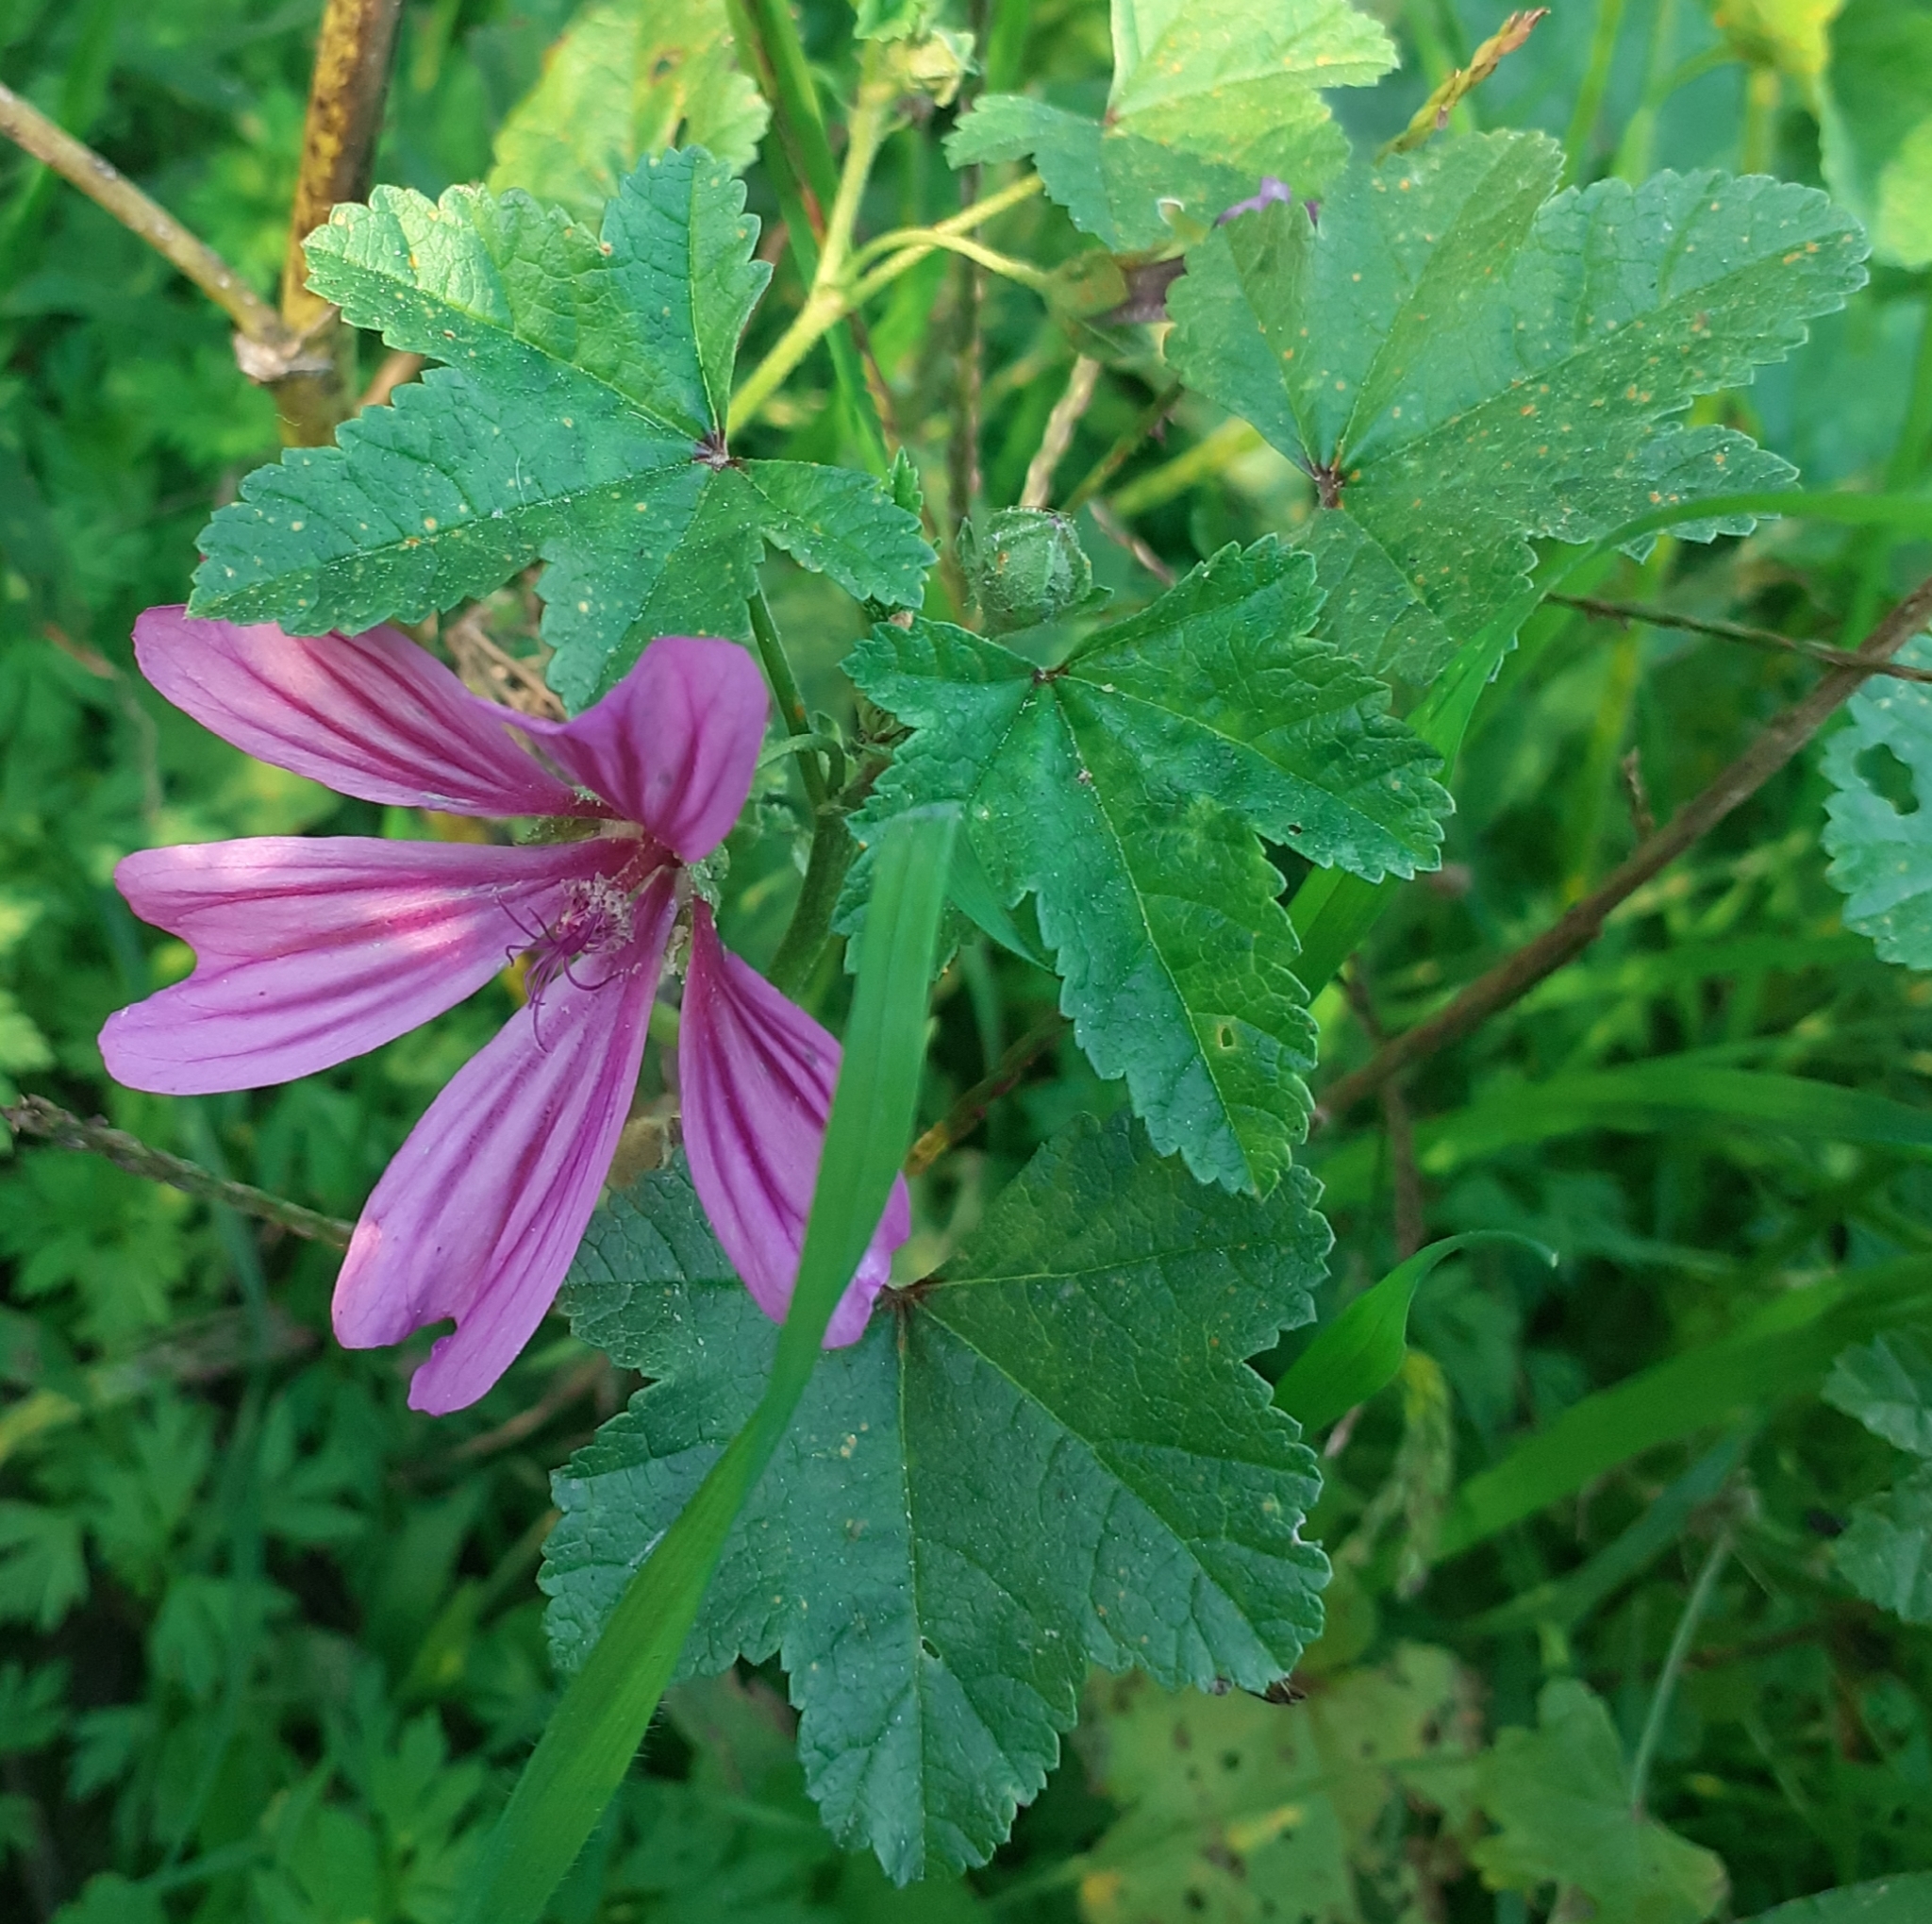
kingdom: Plantae
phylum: Tracheophyta
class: Magnoliopsida
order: Malvales
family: Malvaceae
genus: Malva
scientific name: Malva sylvestris
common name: Common mallow
